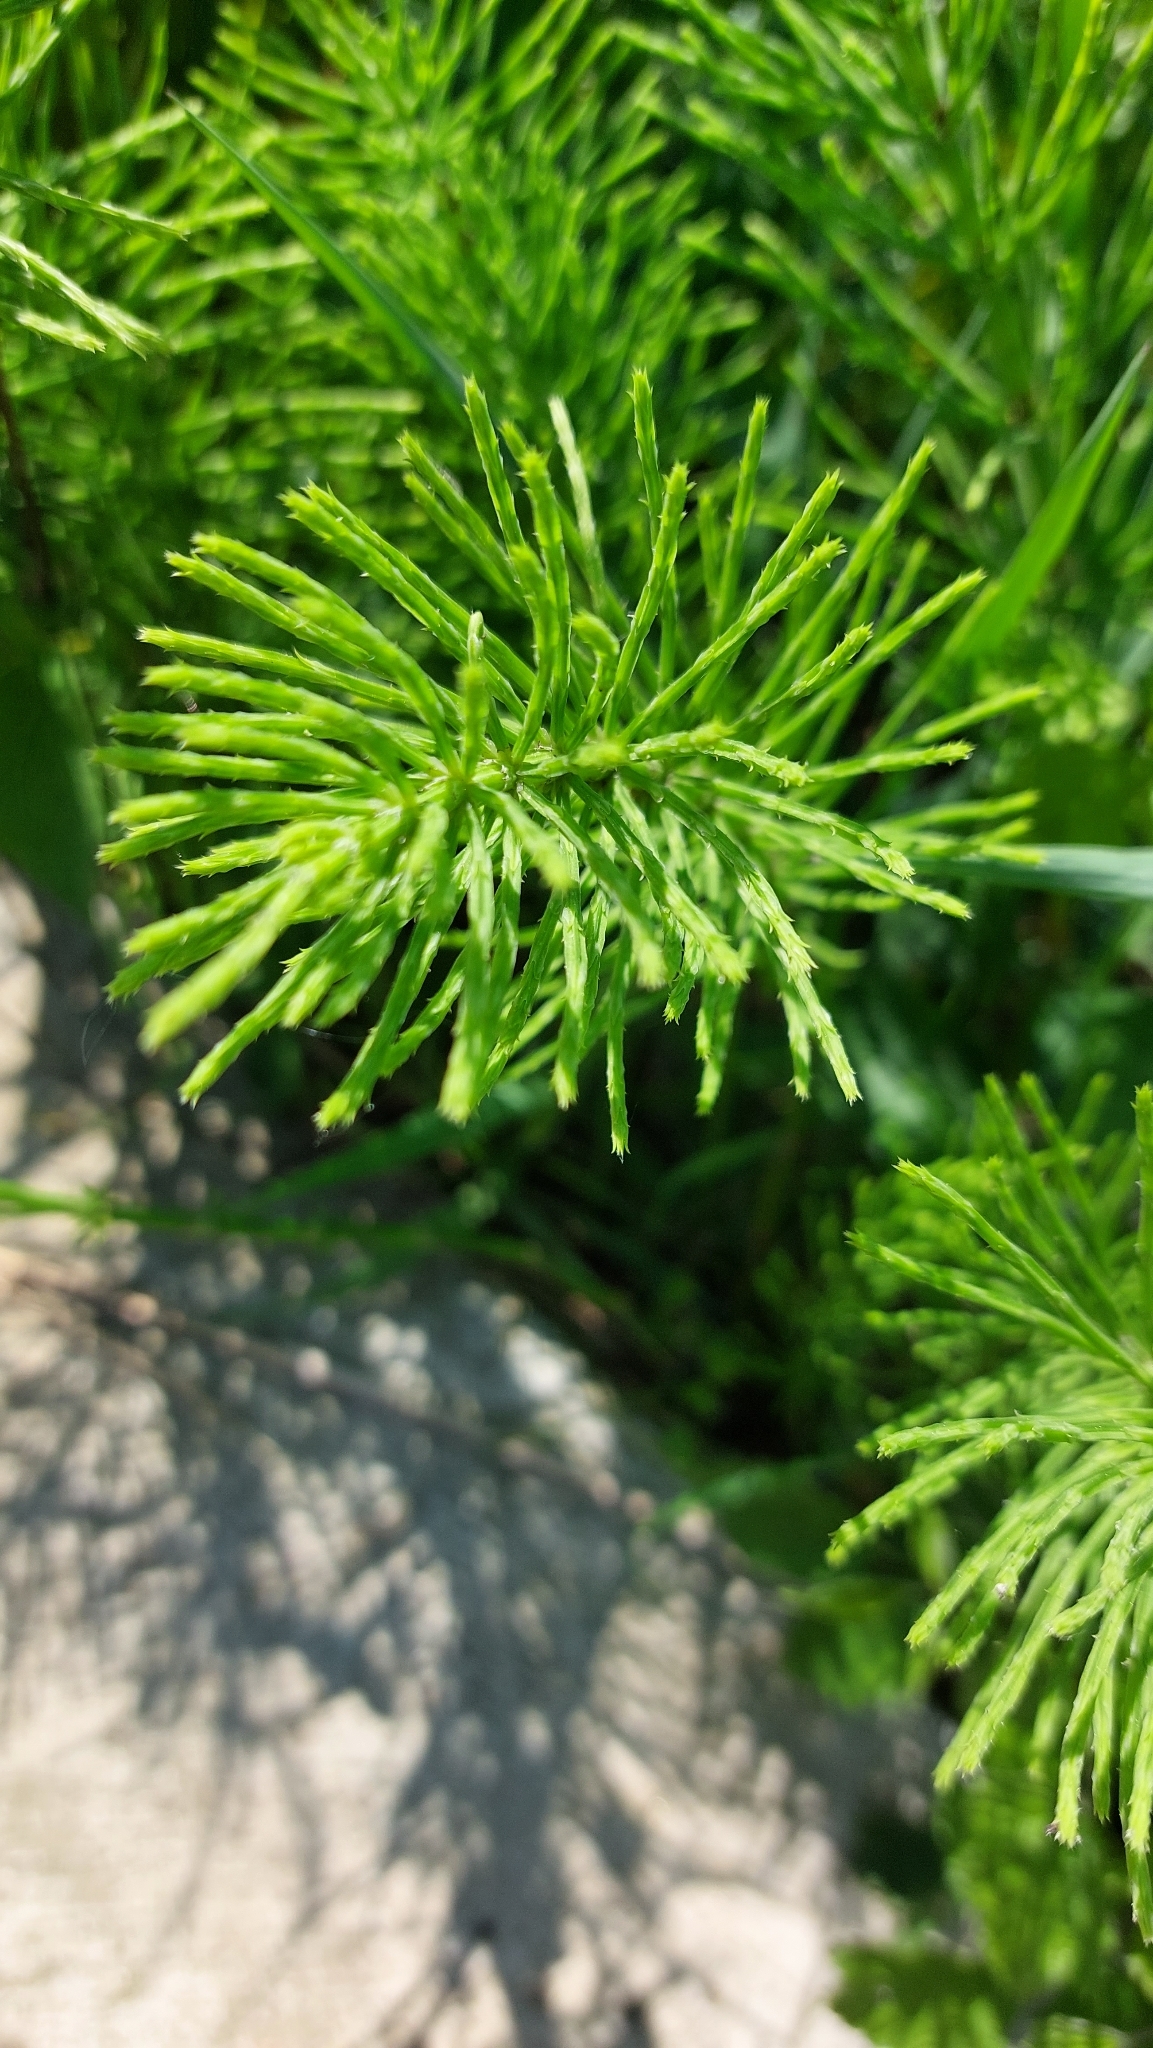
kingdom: Plantae
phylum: Tracheophyta
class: Polypodiopsida
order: Equisetales
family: Equisetaceae
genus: Equisetum
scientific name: Equisetum arvense
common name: Field horsetail
